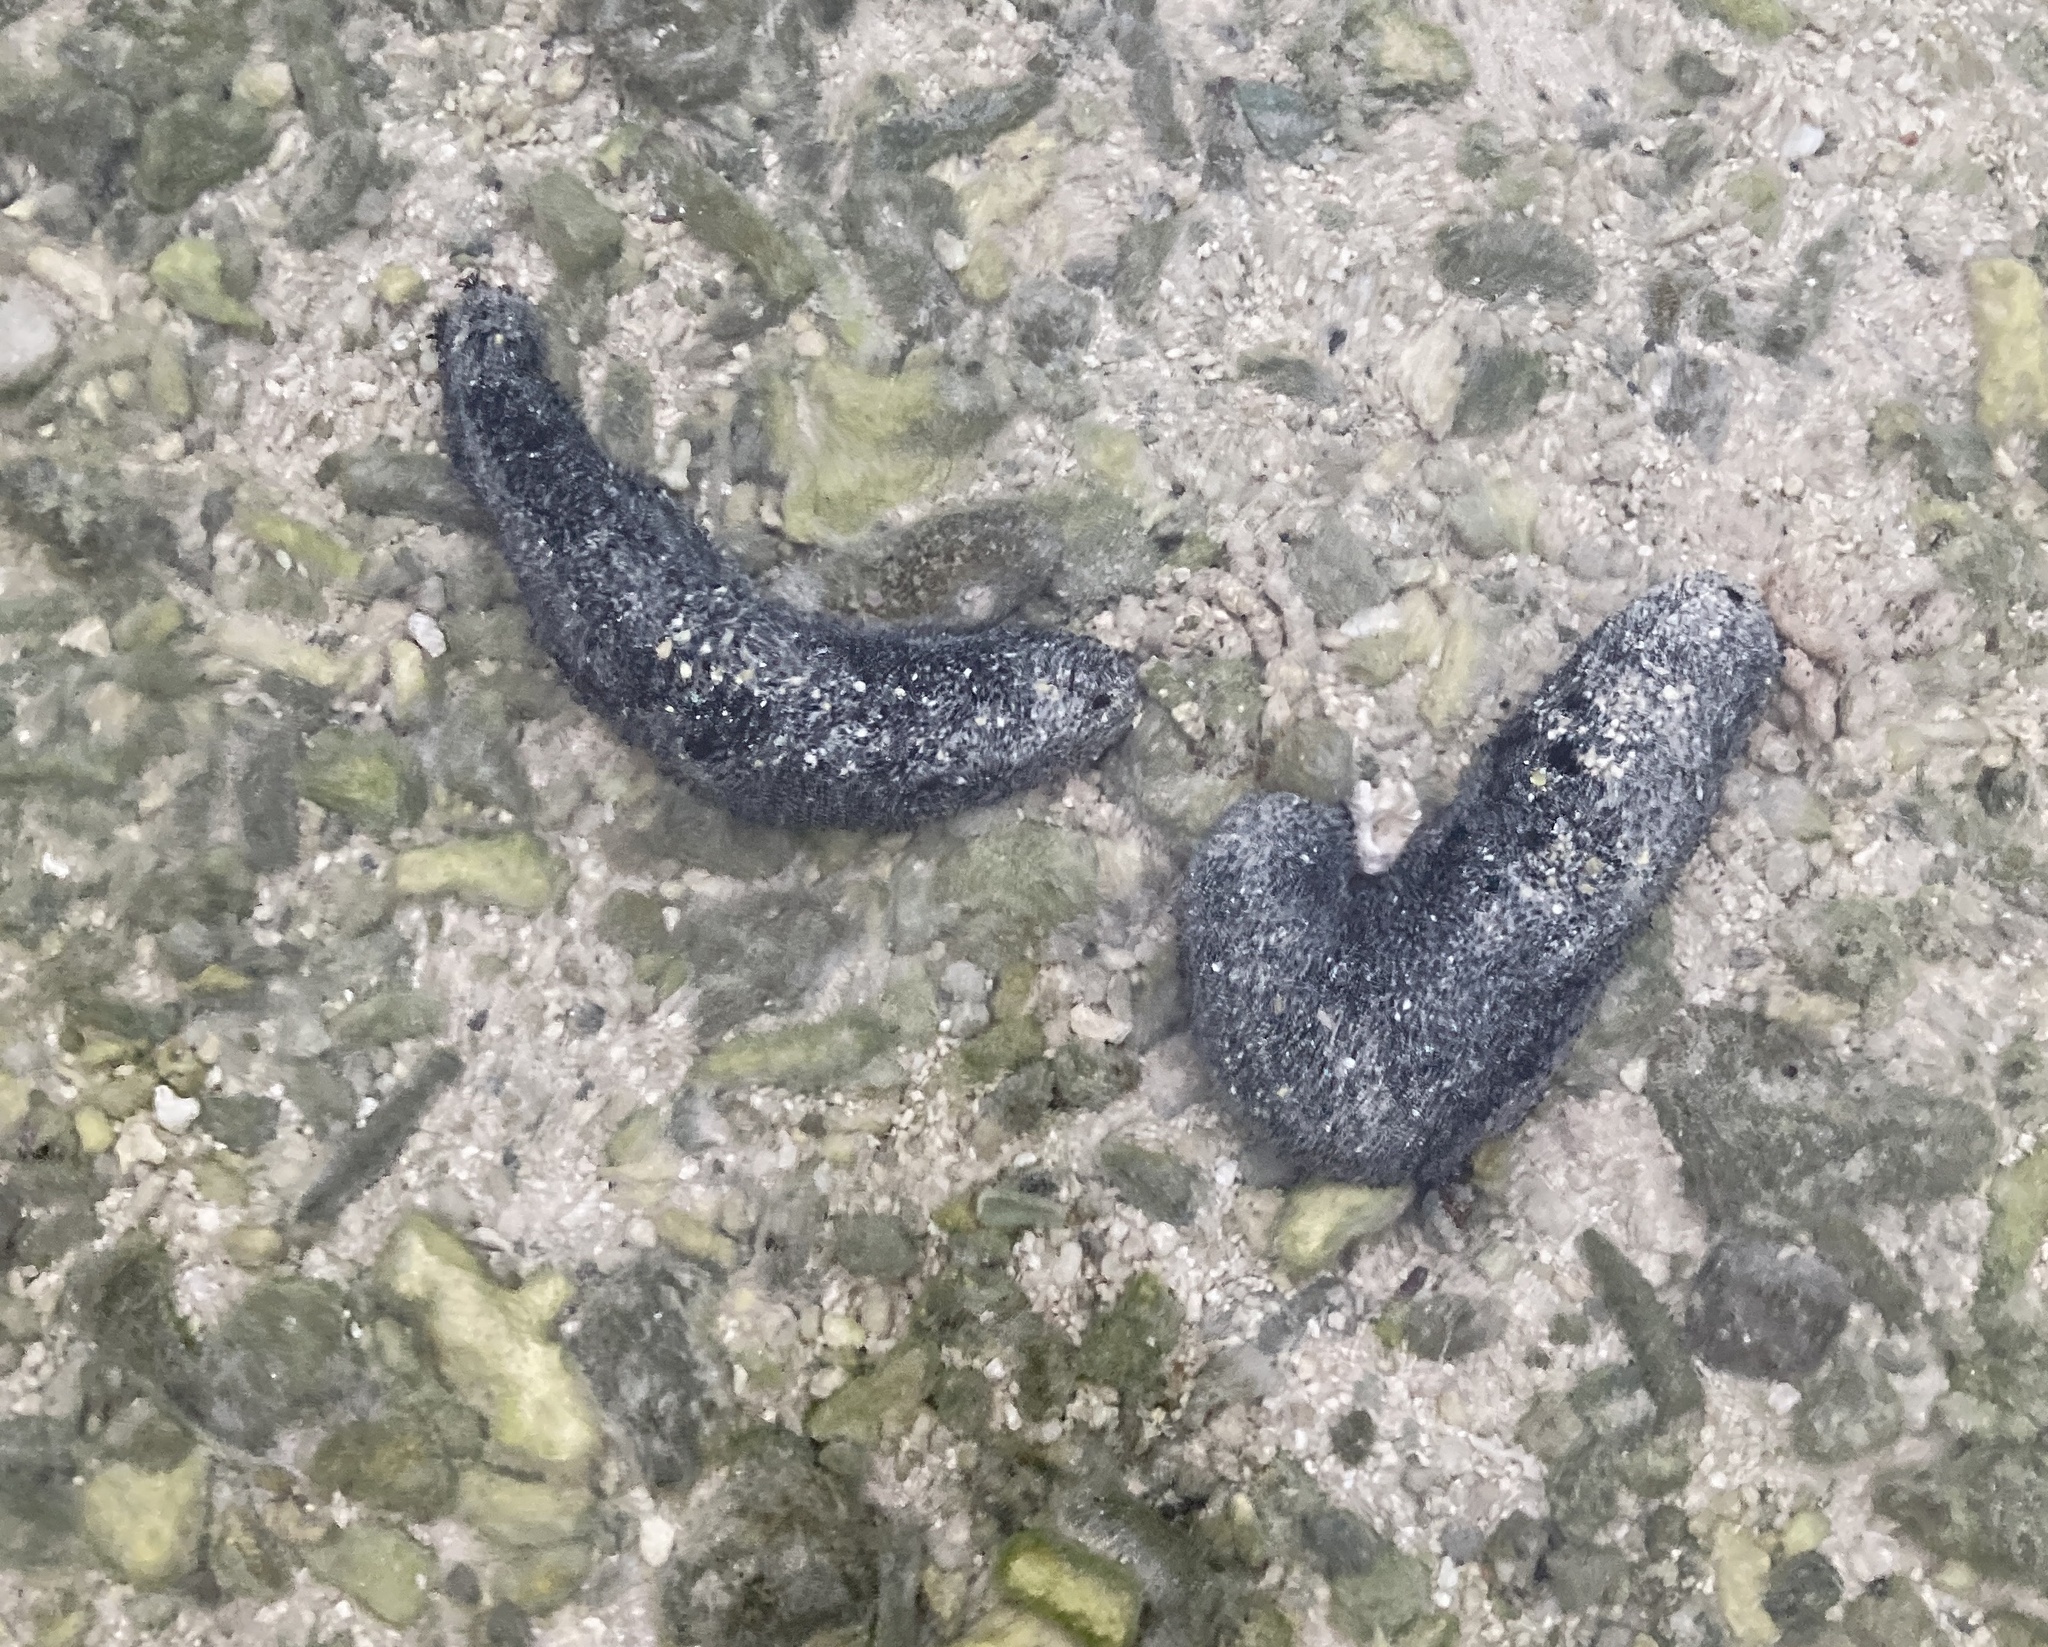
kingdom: Animalia
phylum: Echinodermata
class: Holothuroidea
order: Holothuriida
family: Holothuriidae
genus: Holothuria
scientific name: Holothuria atra
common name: Lollyfish
